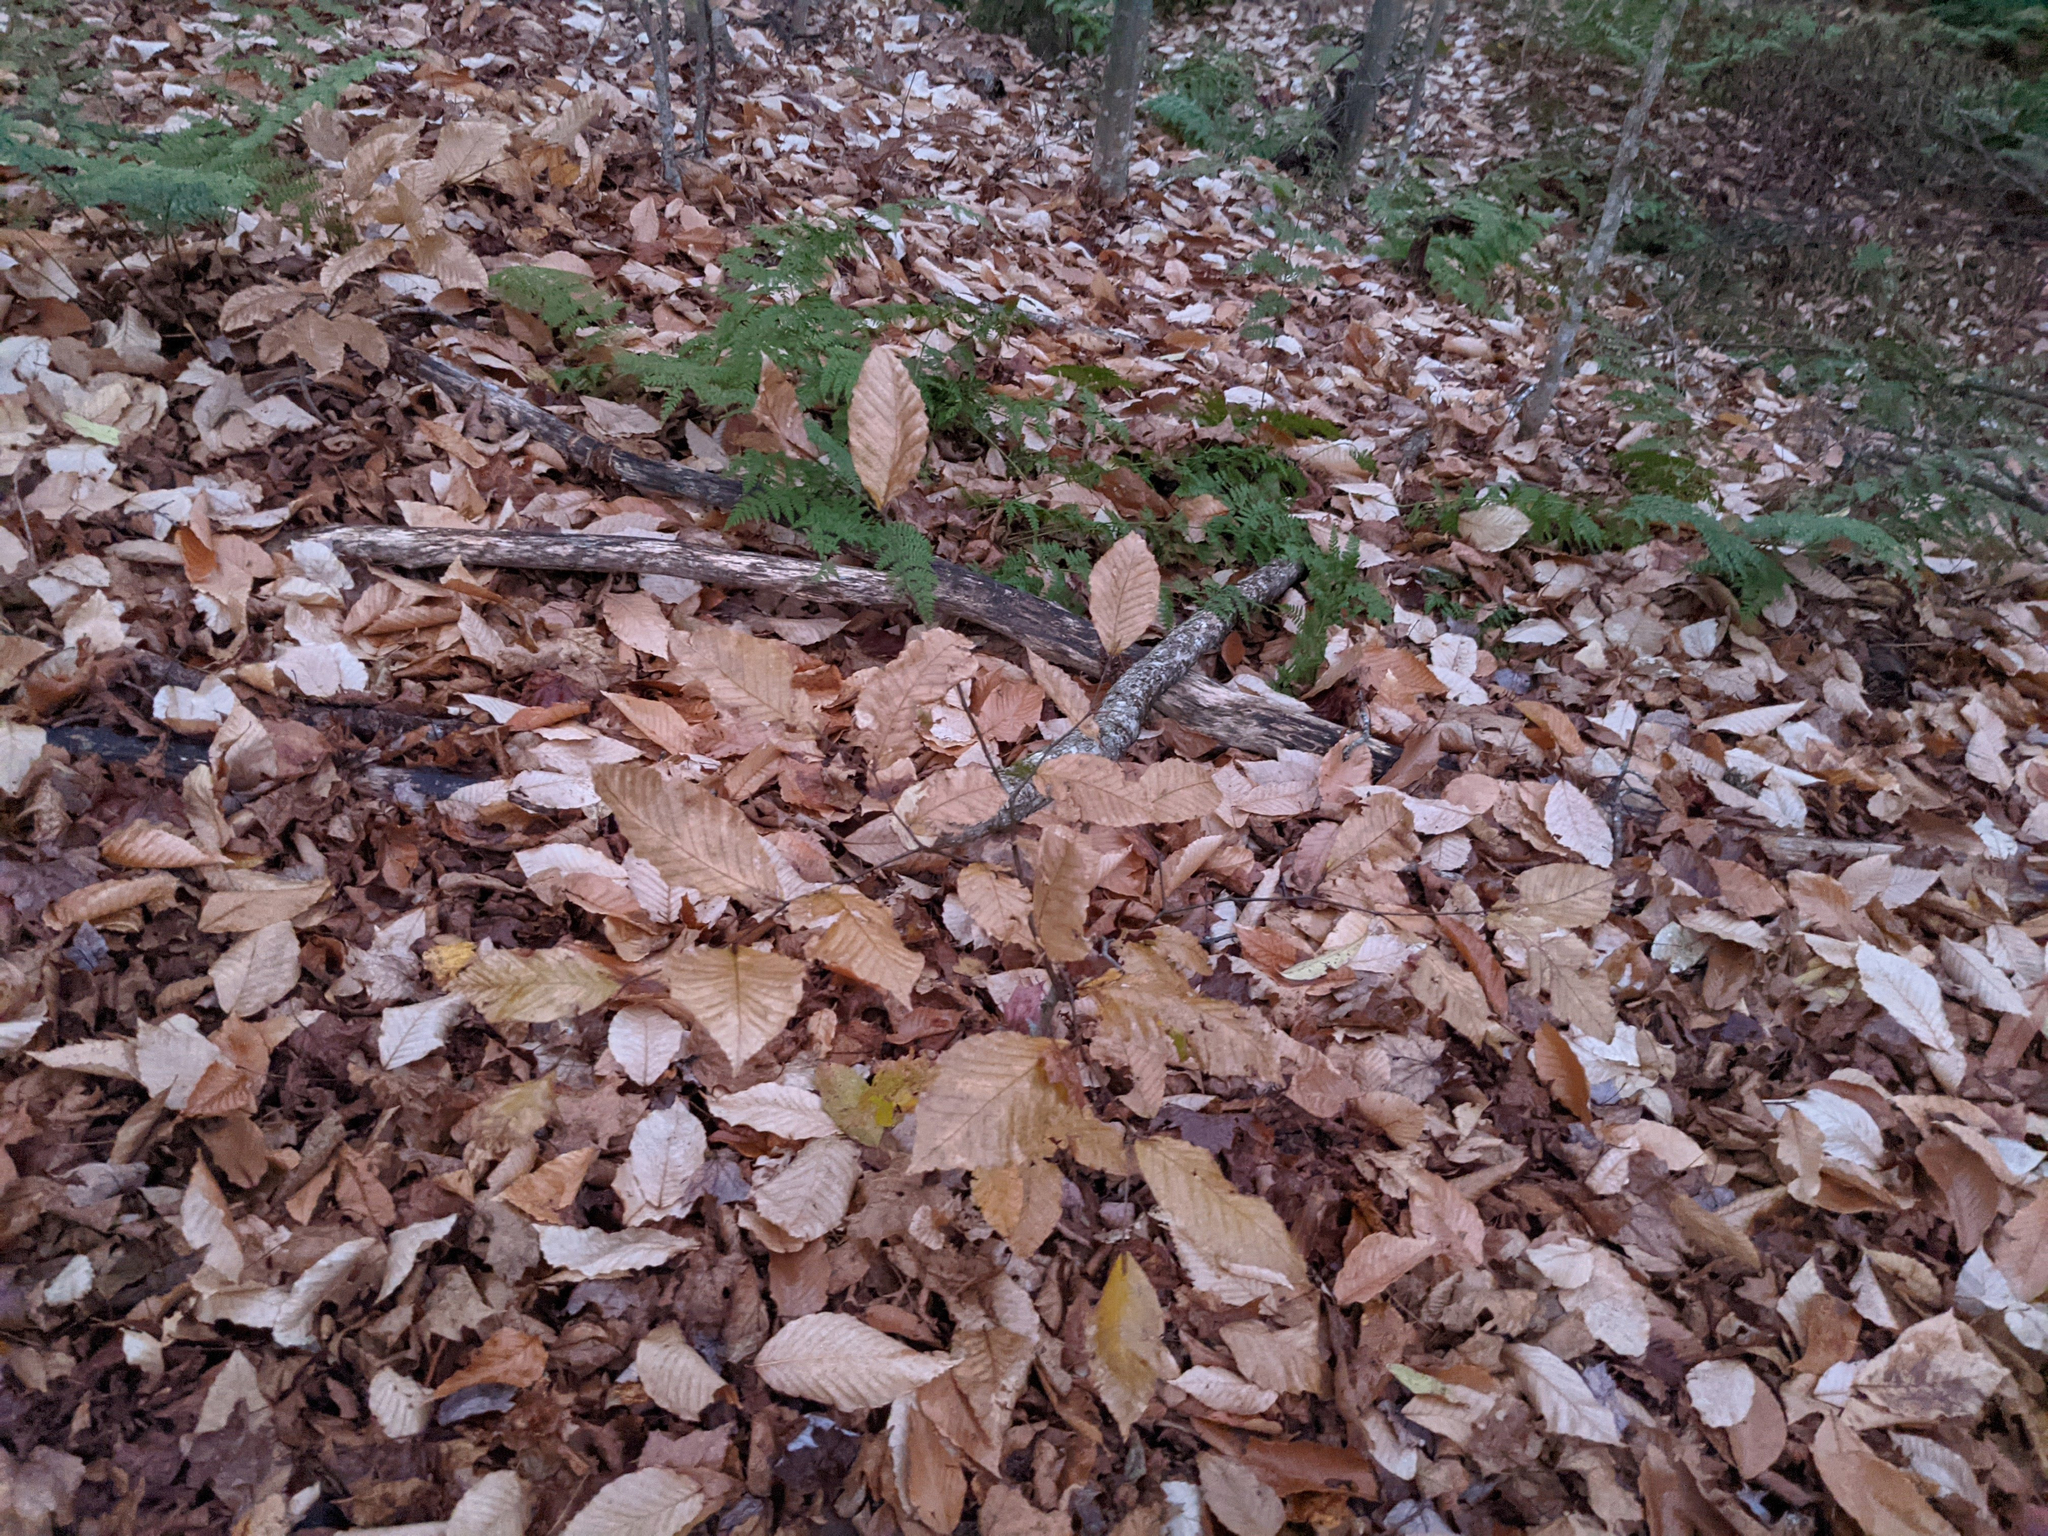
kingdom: Plantae
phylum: Tracheophyta
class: Polypodiopsida
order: Polypodiales
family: Dryopteridaceae
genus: Dryopteris
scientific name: Dryopteris intermedia
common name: Evergreen wood fern
